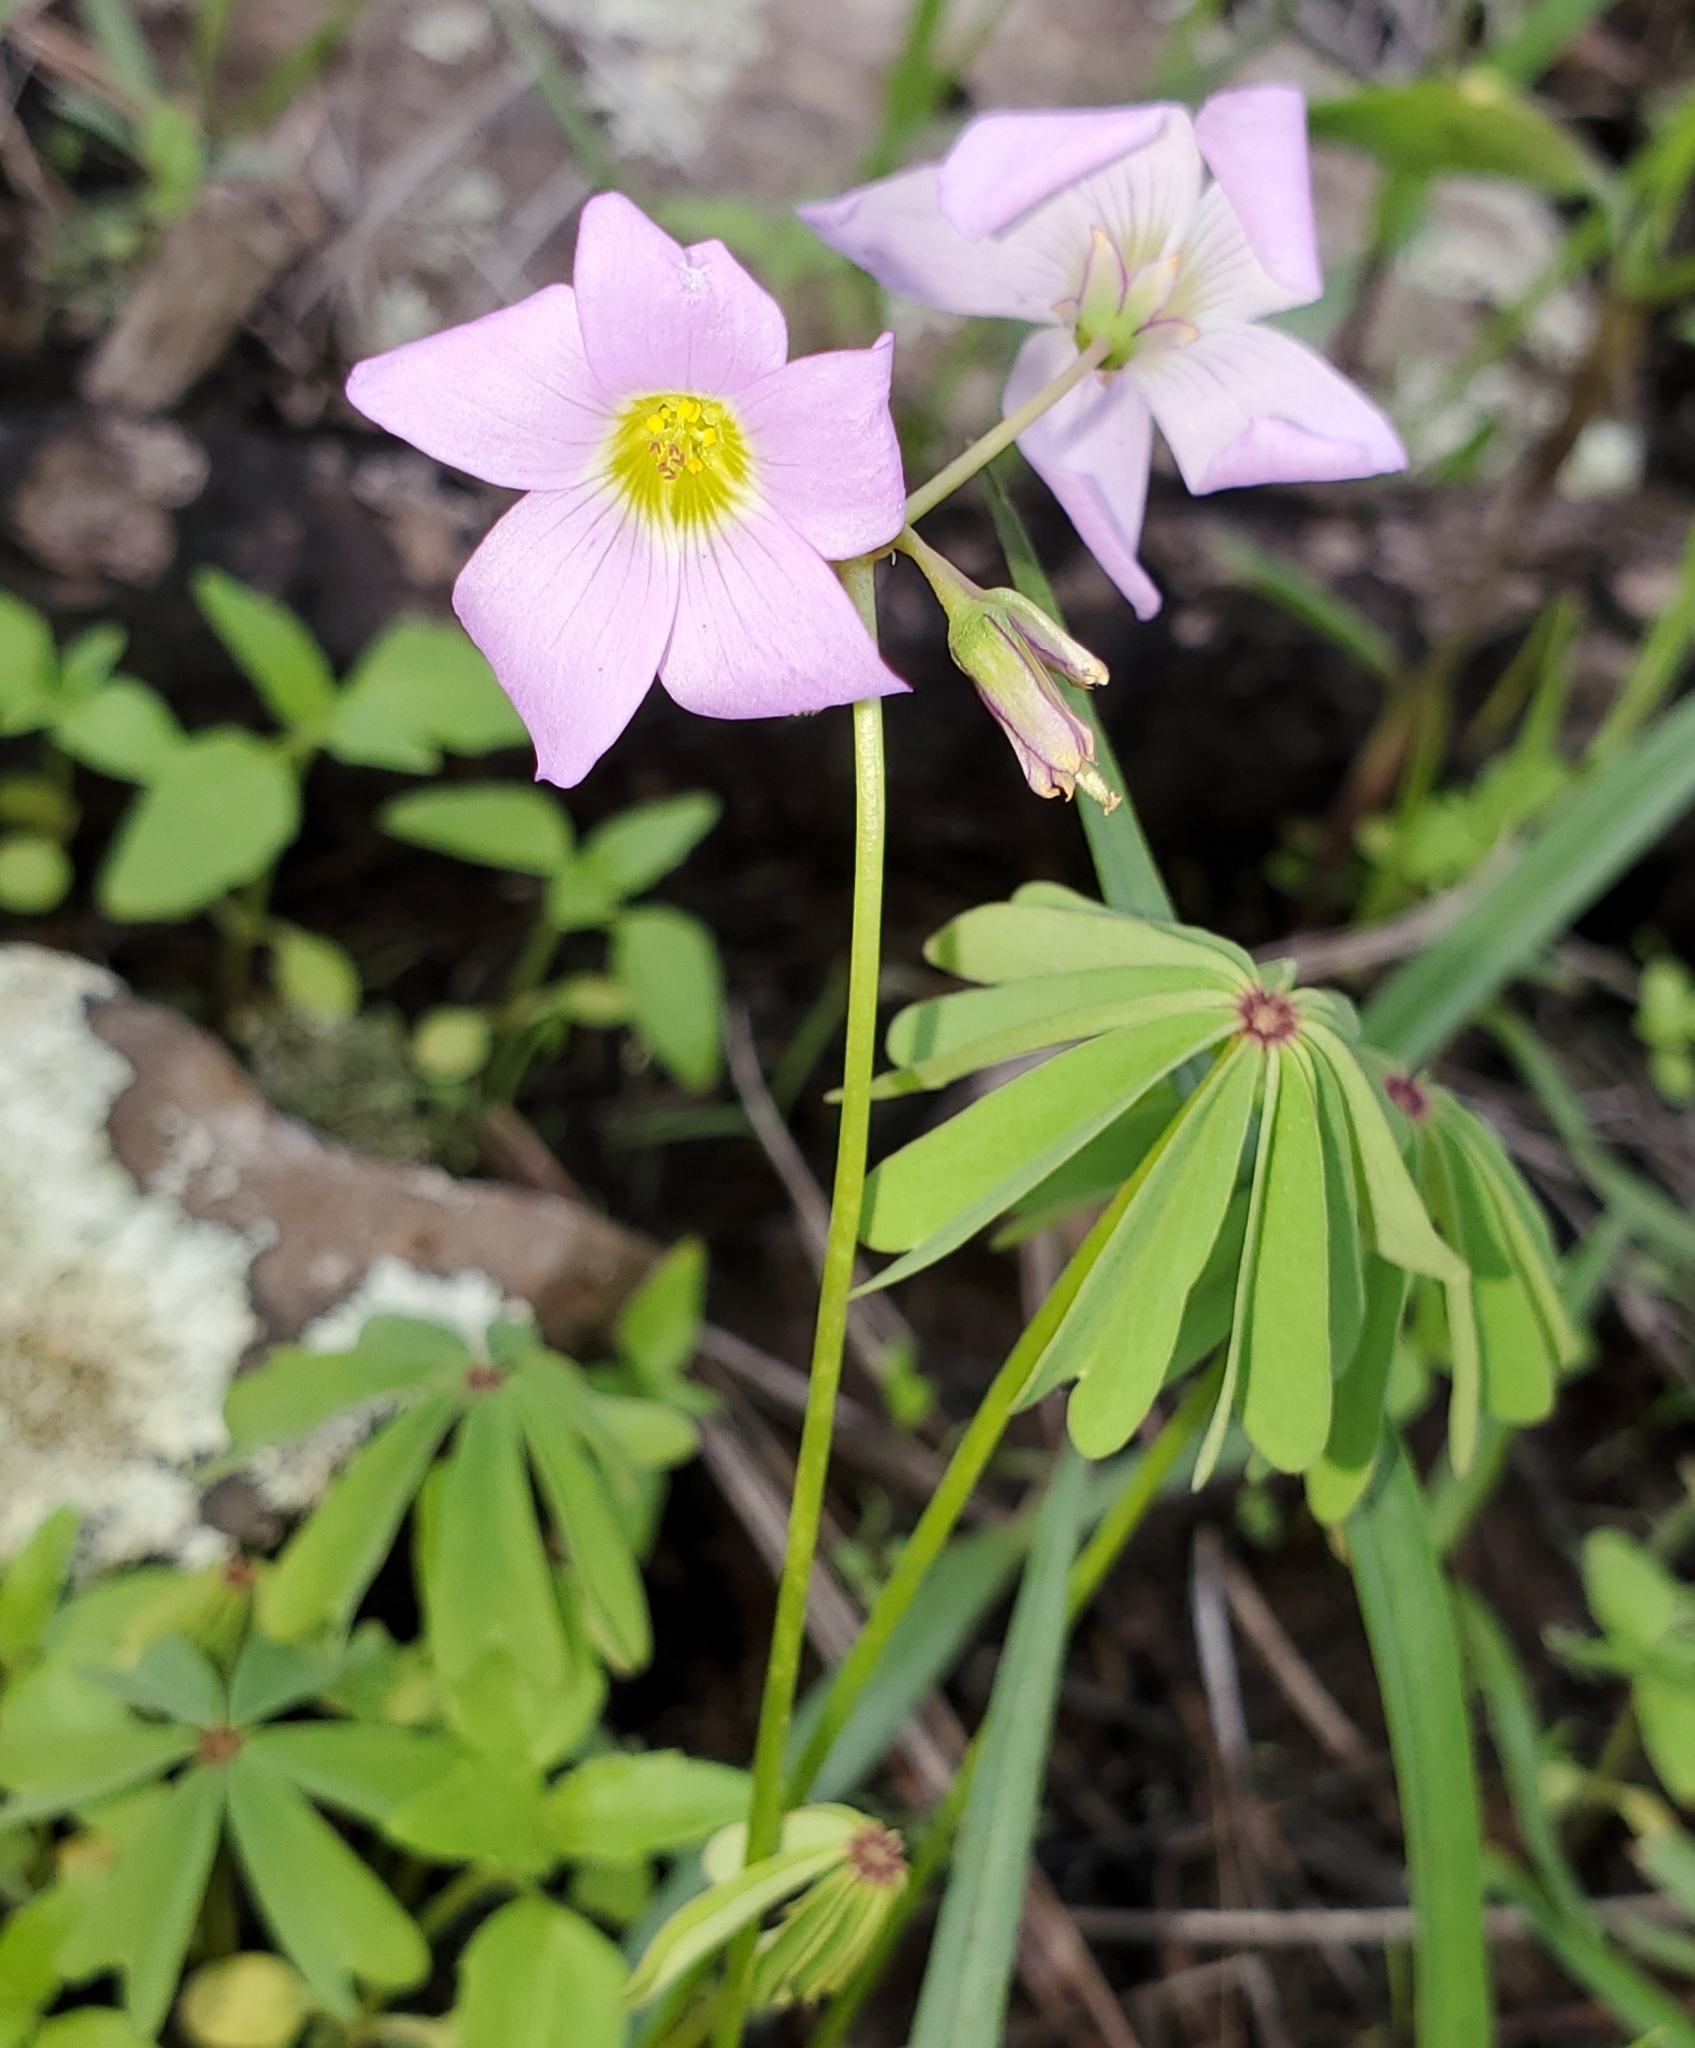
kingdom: Plantae
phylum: Tracheophyta
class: Magnoliopsida
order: Oxalidales
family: Oxalidaceae
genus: Oxalis
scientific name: Oxalis decaphylla
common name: Ten-leaved pink-sorrel
